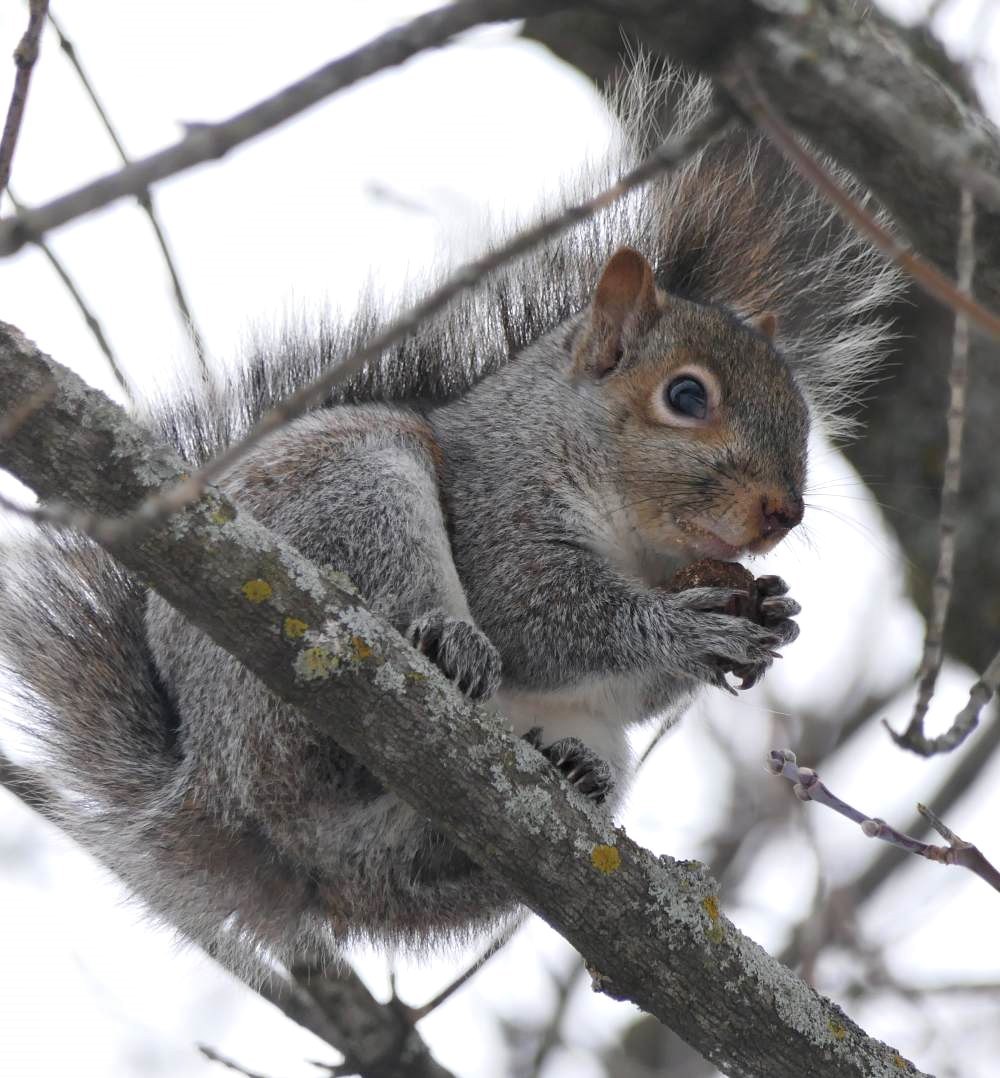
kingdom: Animalia
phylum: Chordata
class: Mammalia
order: Rodentia
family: Sciuridae
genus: Sciurus
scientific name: Sciurus carolinensis
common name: Eastern gray squirrel
